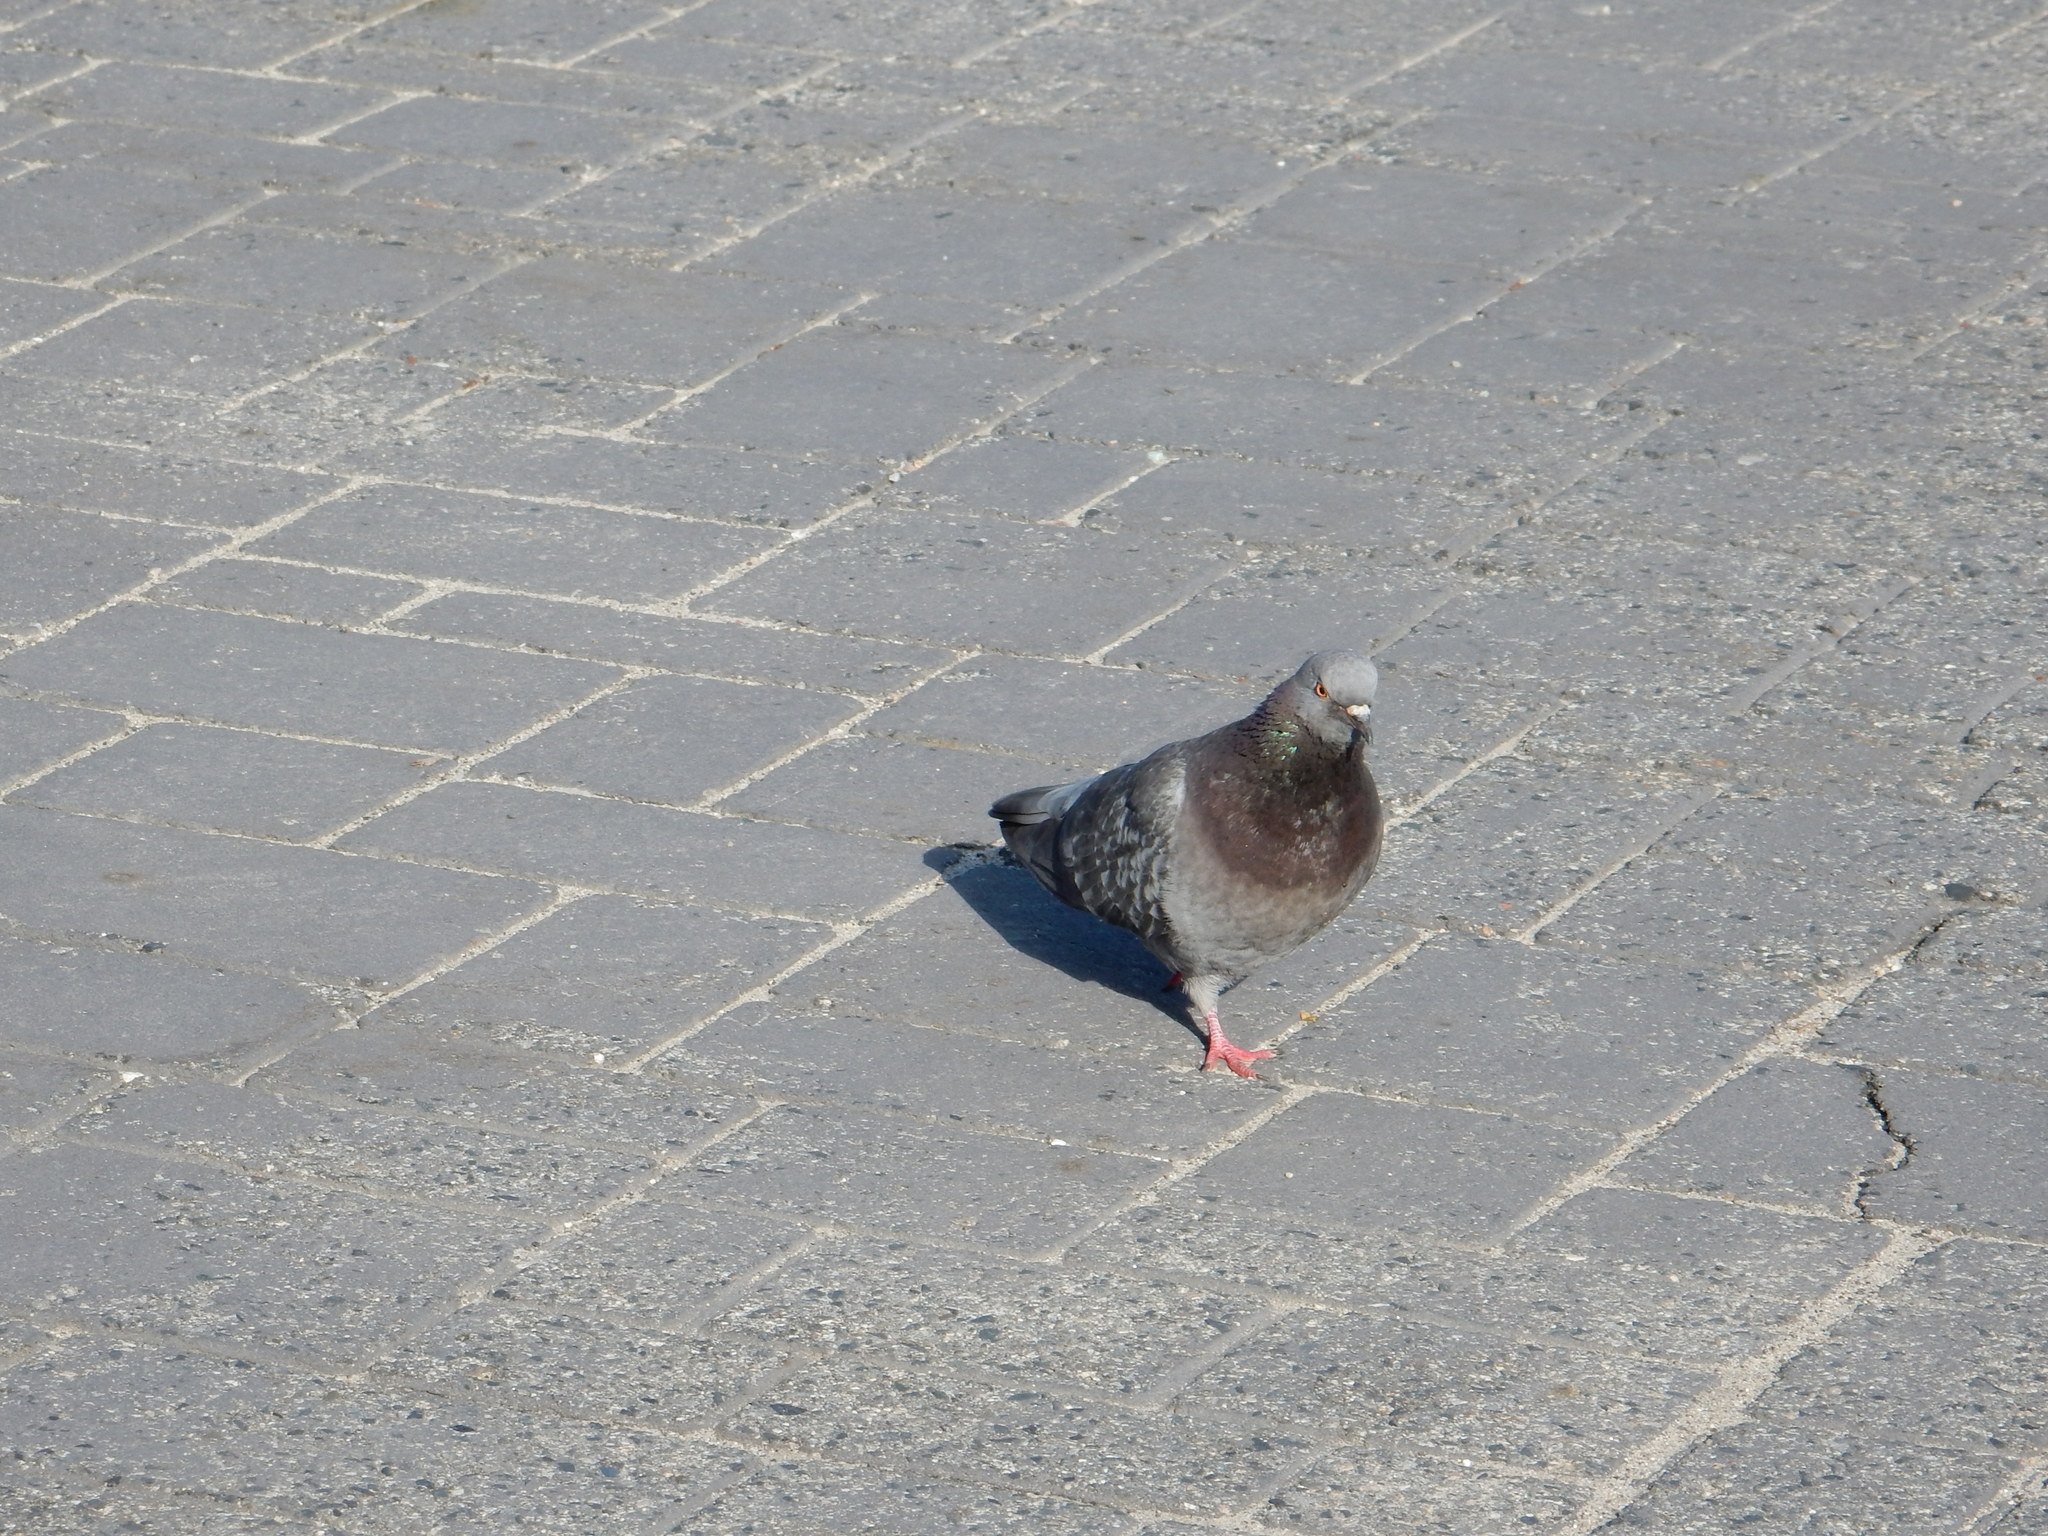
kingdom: Animalia
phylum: Chordata
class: Aves
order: Columbiformes
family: Columbidae
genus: Columba
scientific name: Columba livia
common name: Rock pigeon
